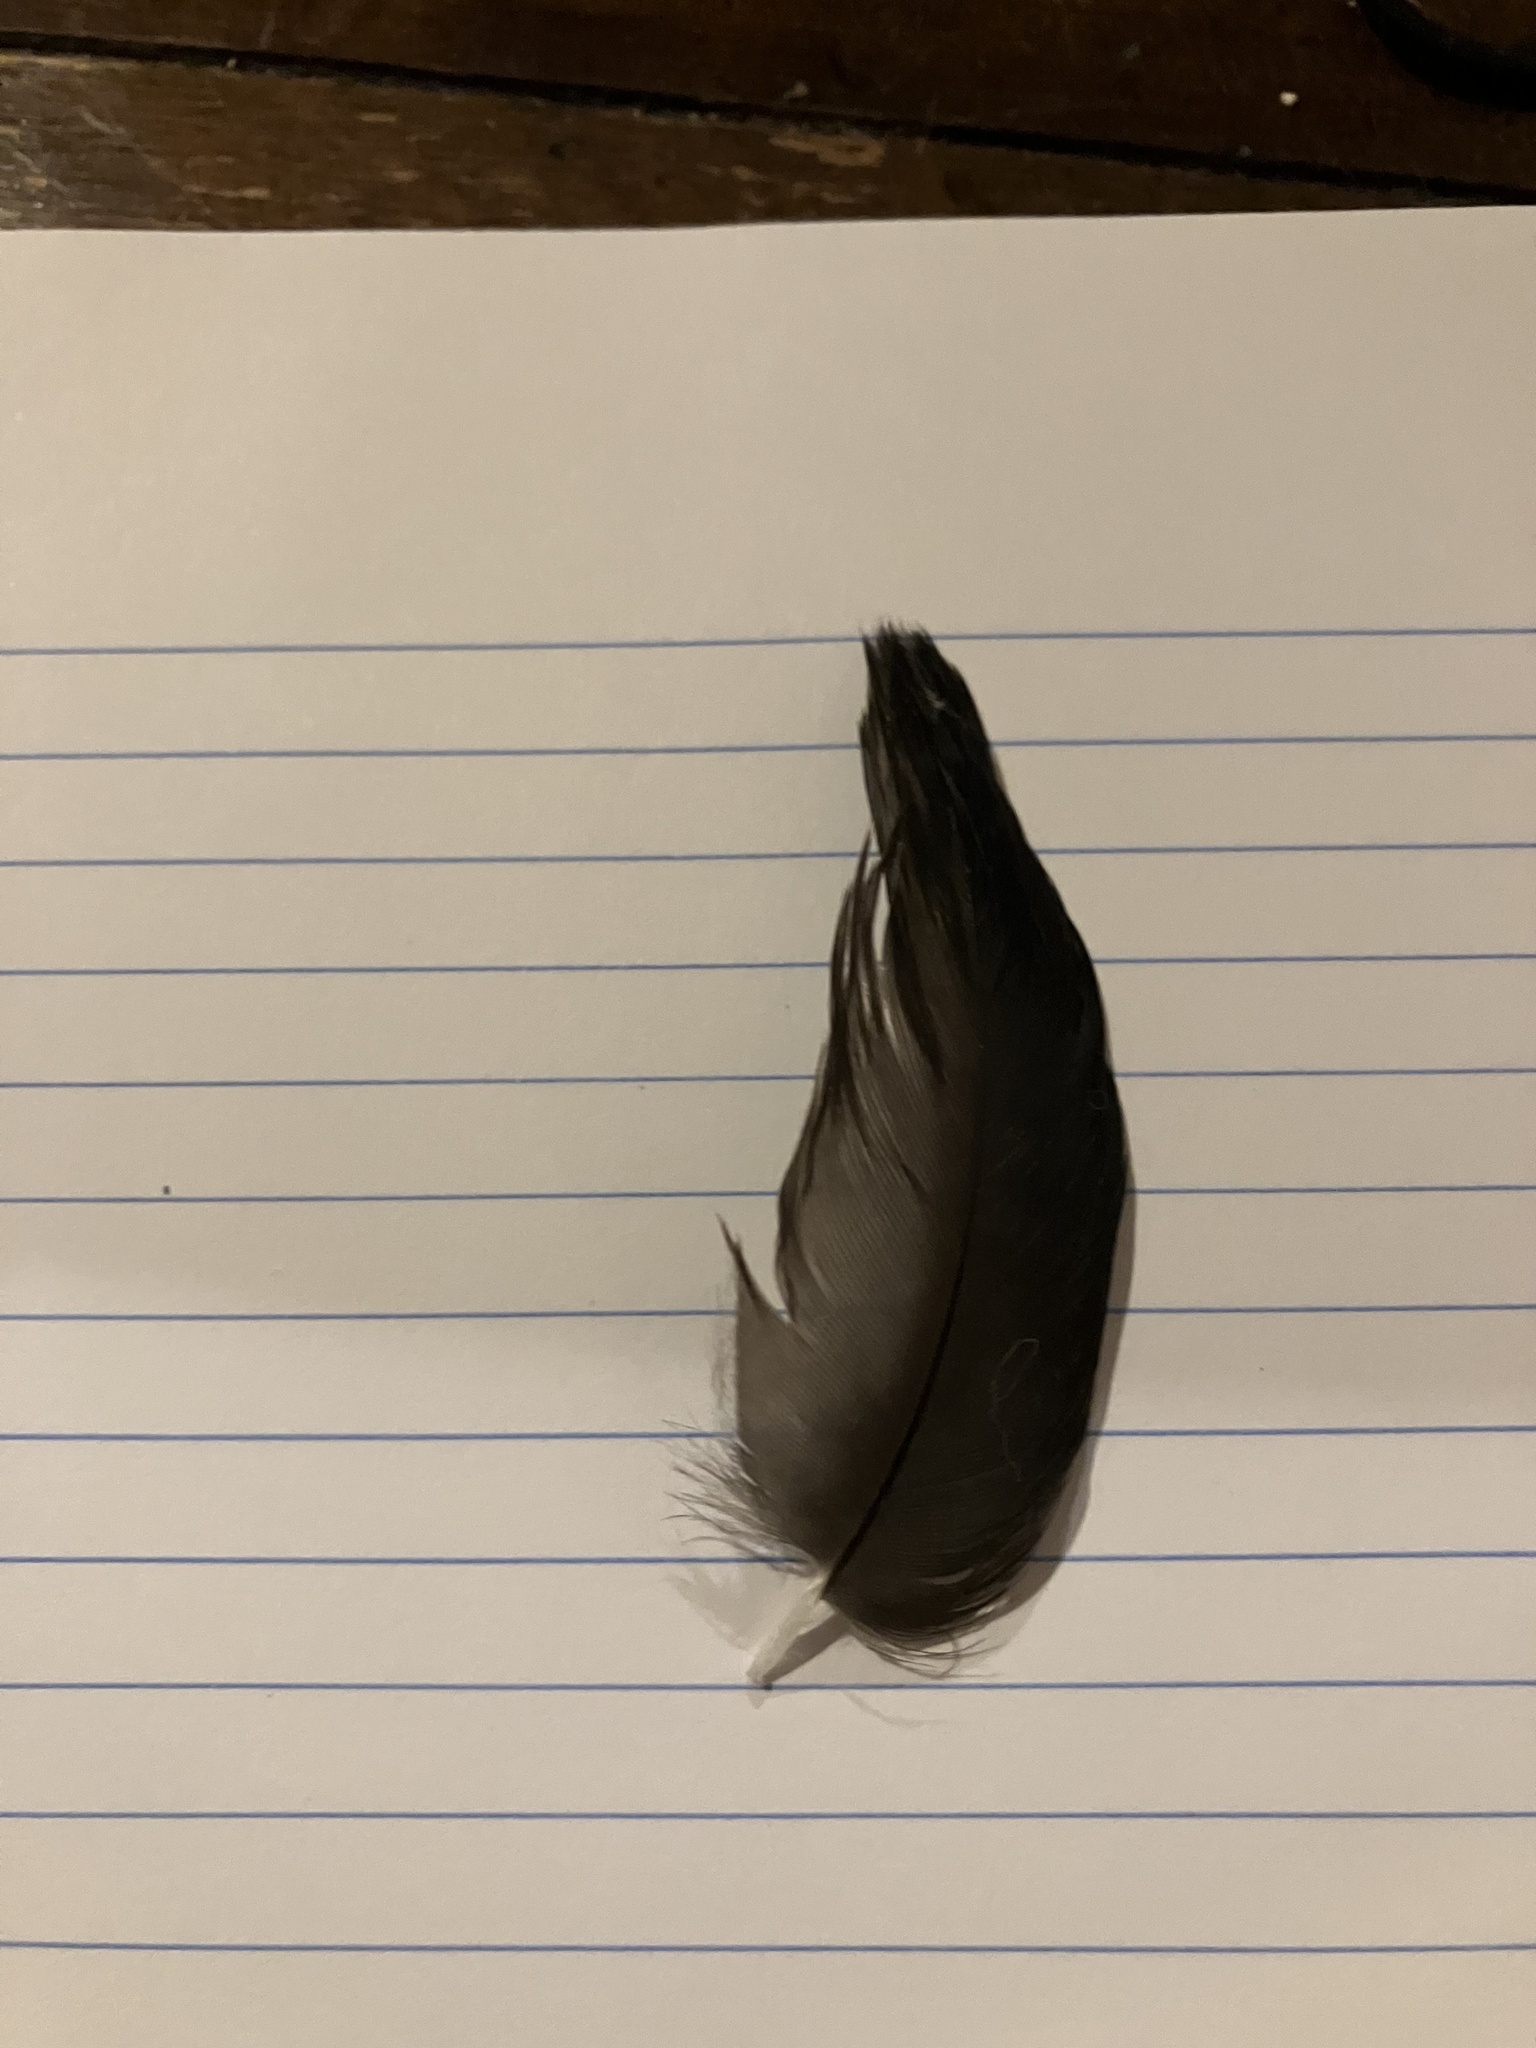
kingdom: Animalia
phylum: Chordata
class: Aves
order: Passeriformes
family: Corvidae
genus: Corvus
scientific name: Corvus
